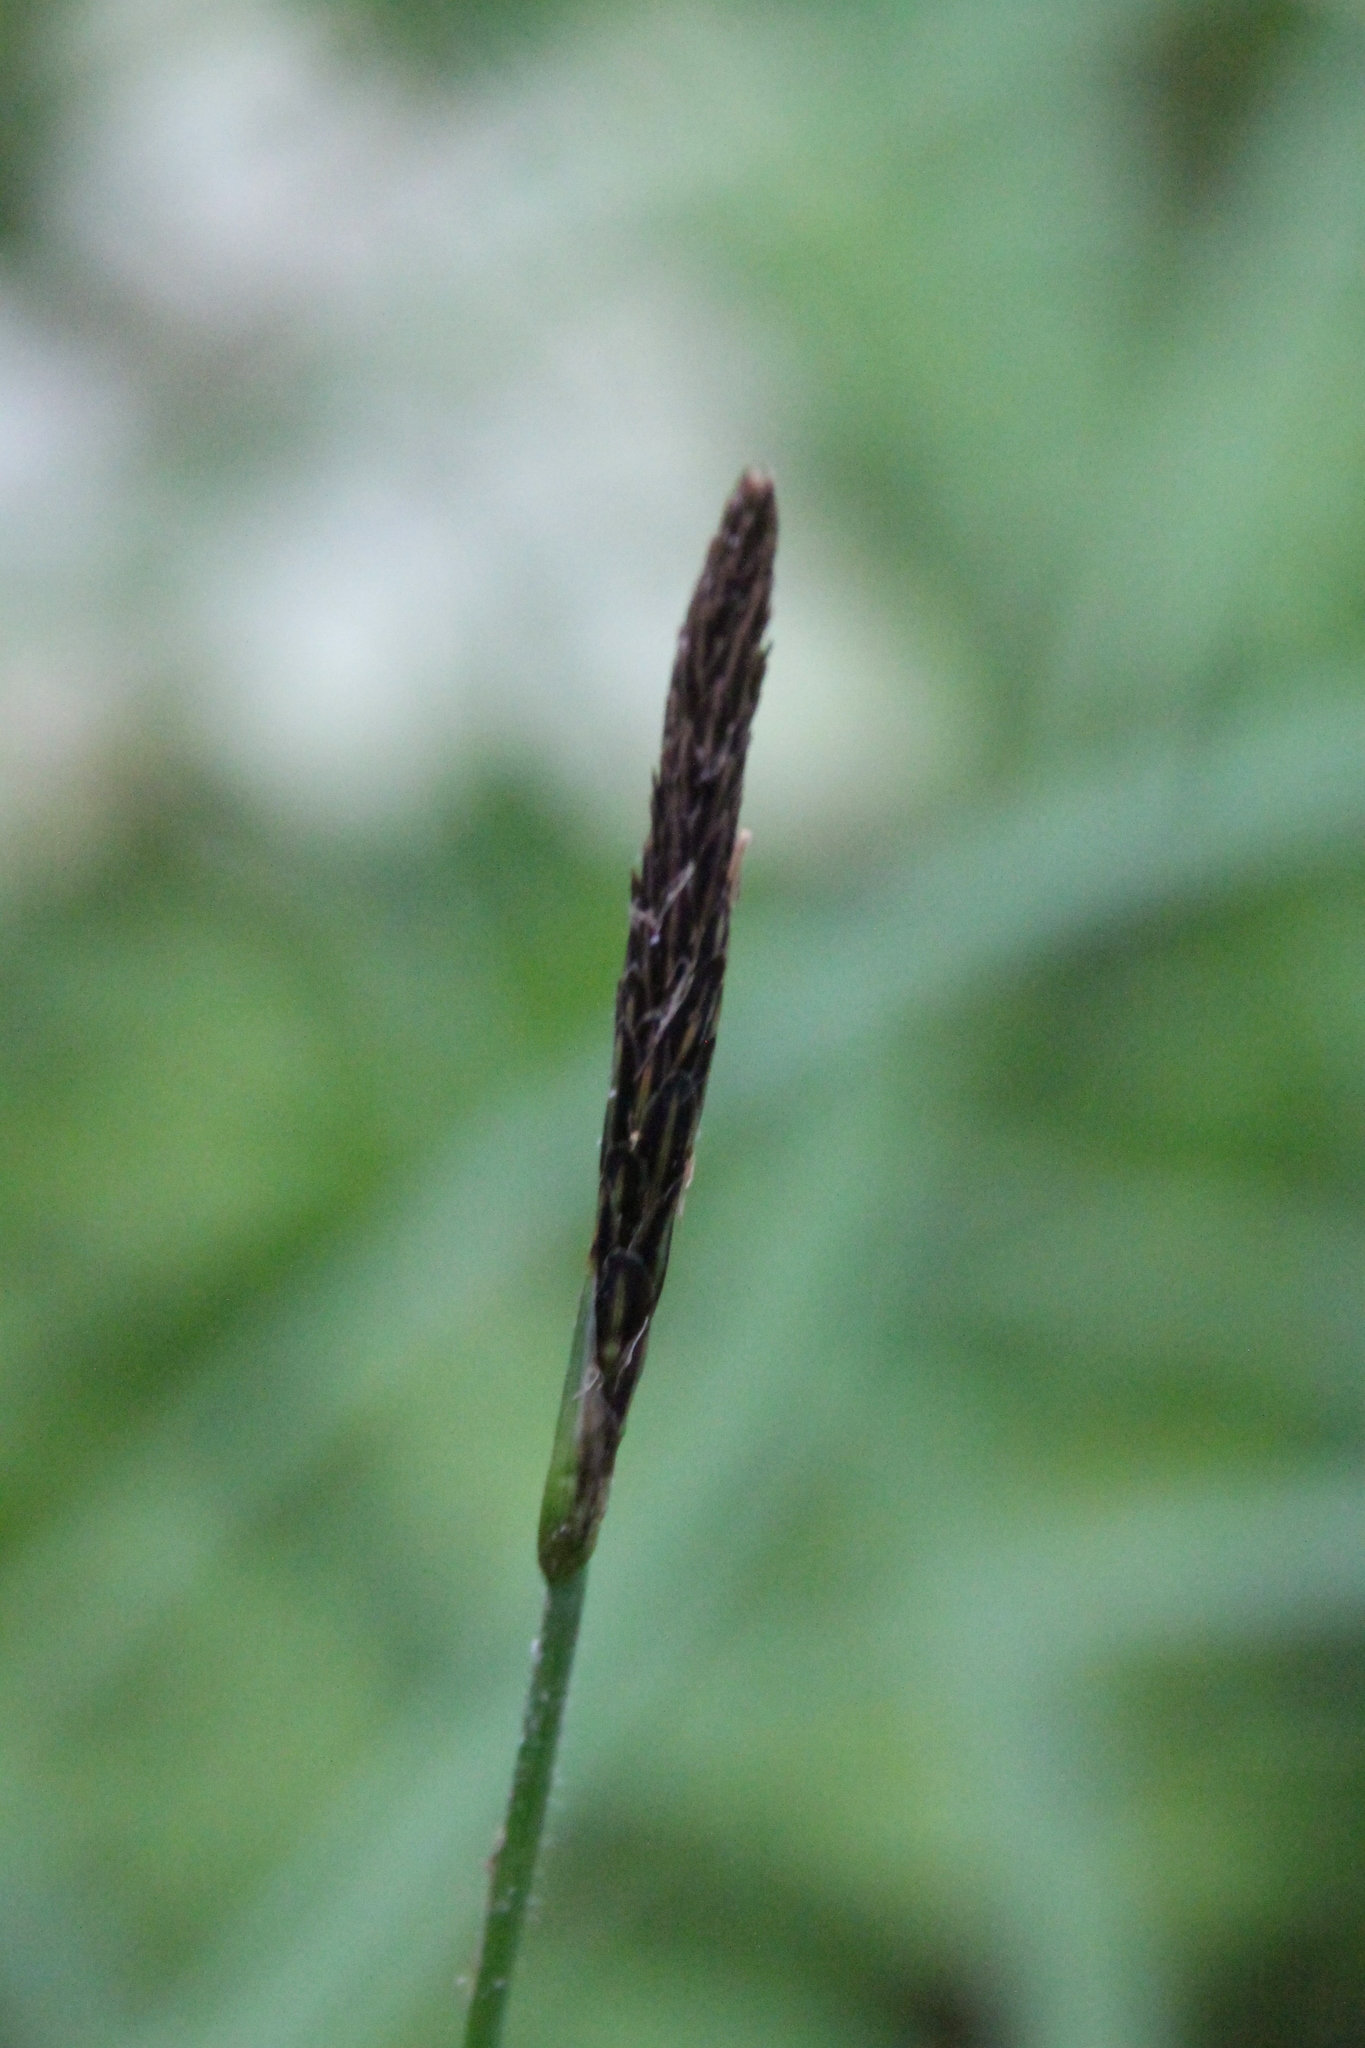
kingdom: Plantae
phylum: Tracheophyta
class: Liliopsida
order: Poales
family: Cyperaceae
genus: Carex
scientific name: Carex pilosa
